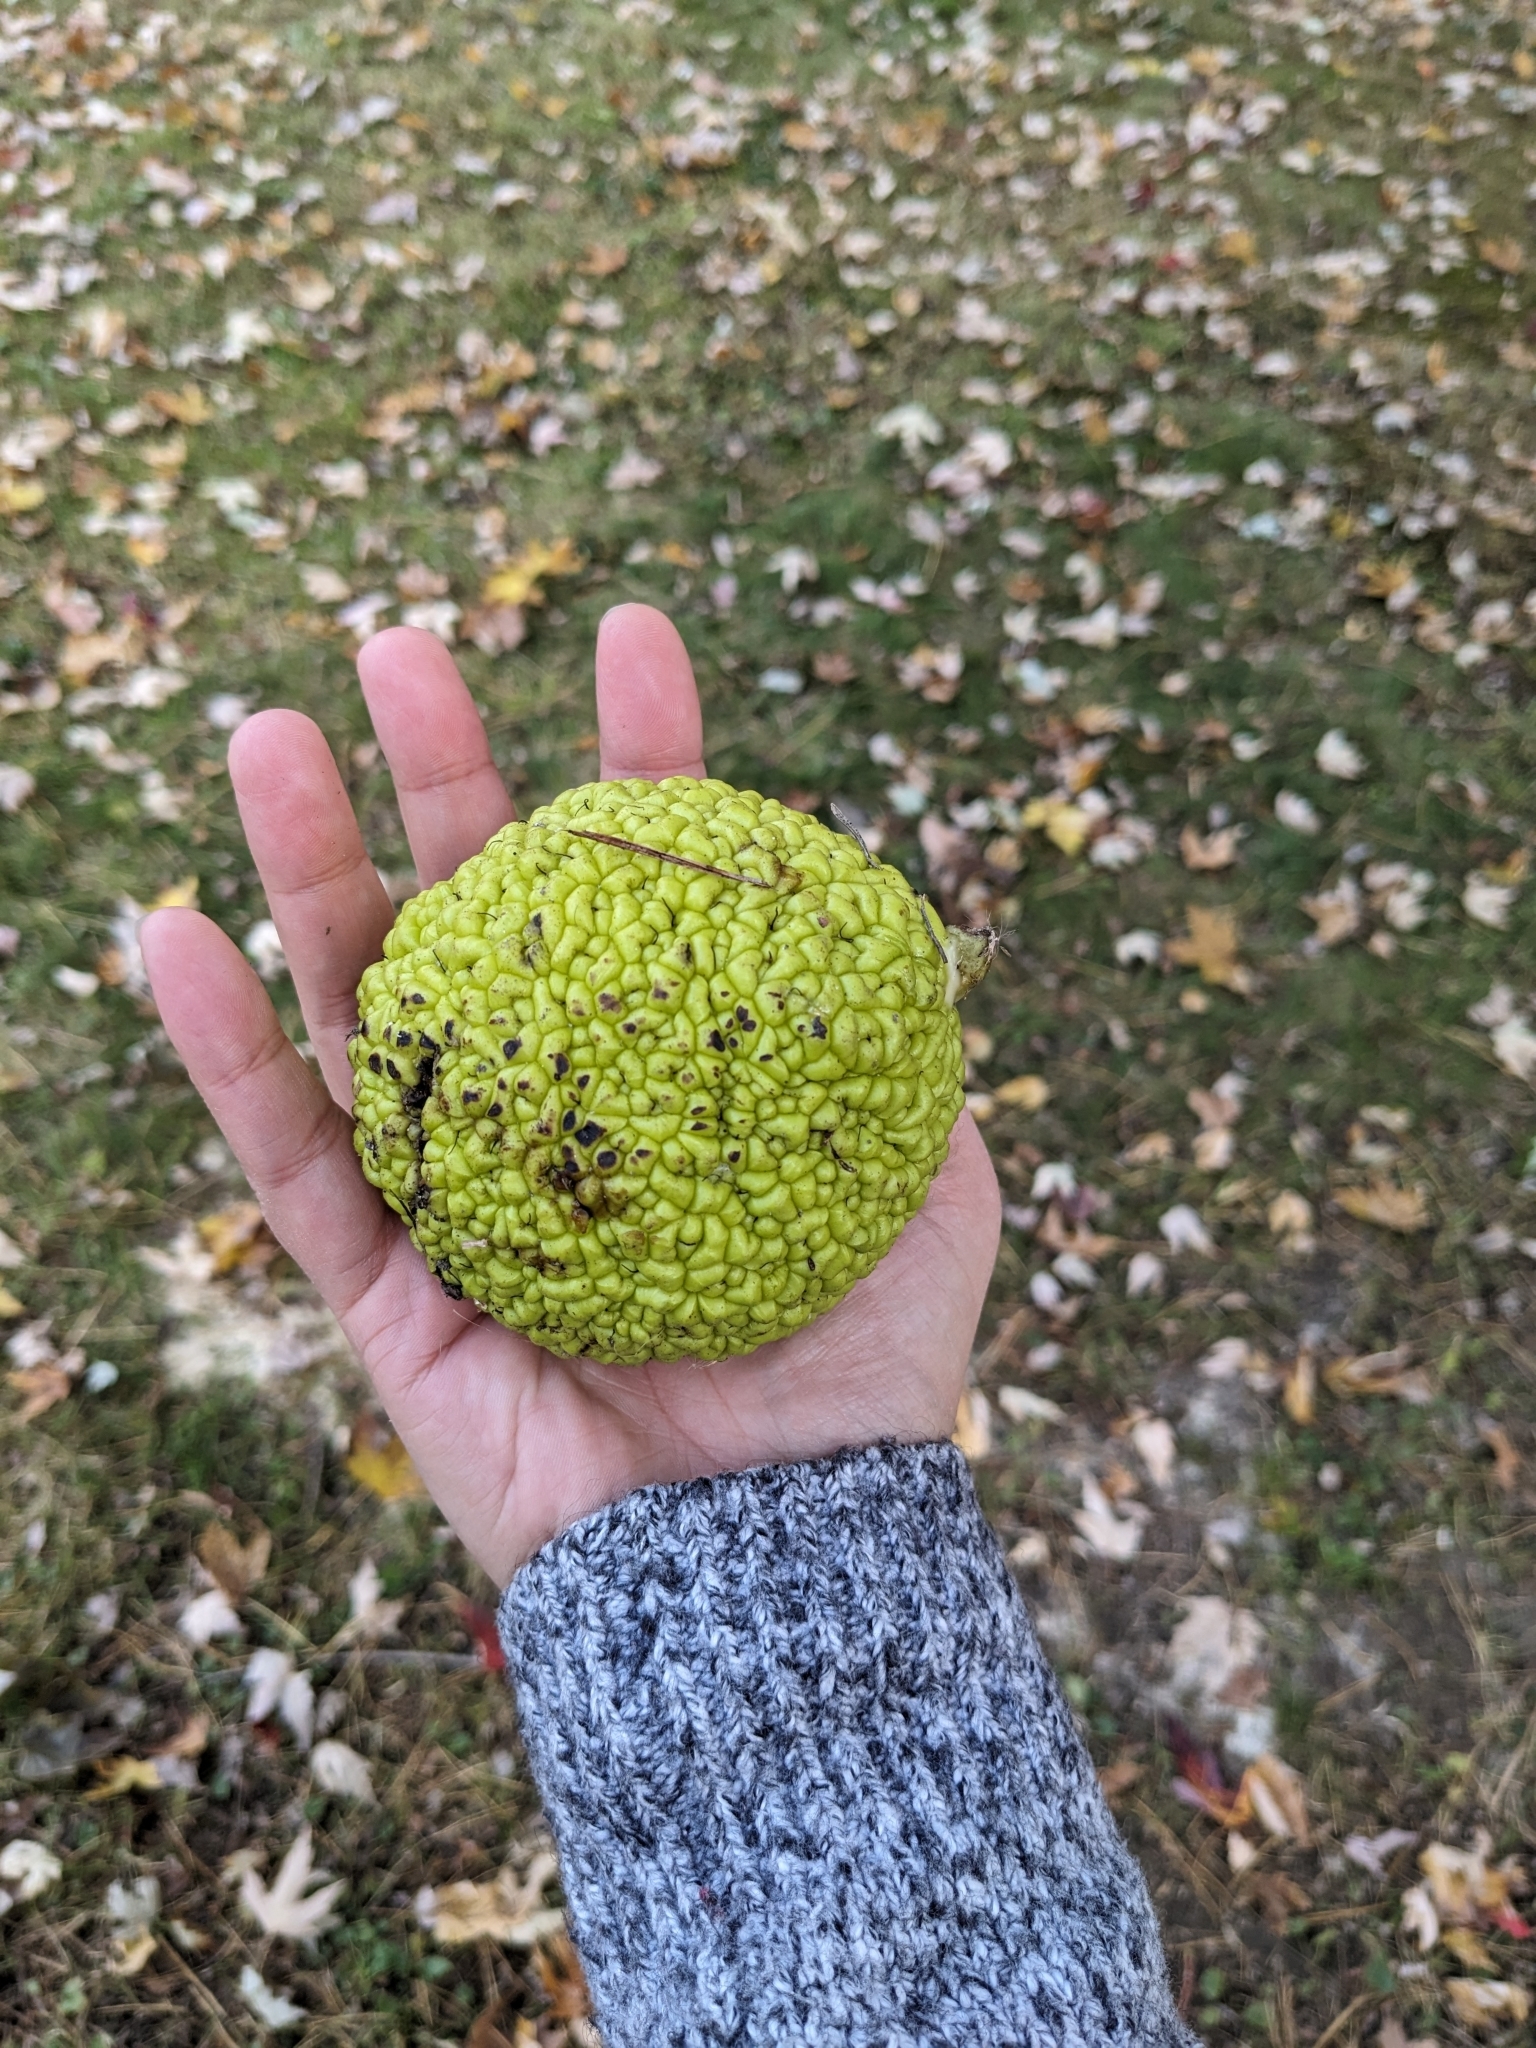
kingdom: Plantae
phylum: Tracheophyta
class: Magnoliopsida
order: Rosales
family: Moraceae
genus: Maclura
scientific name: Maclura pomifera
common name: Osage-orange
